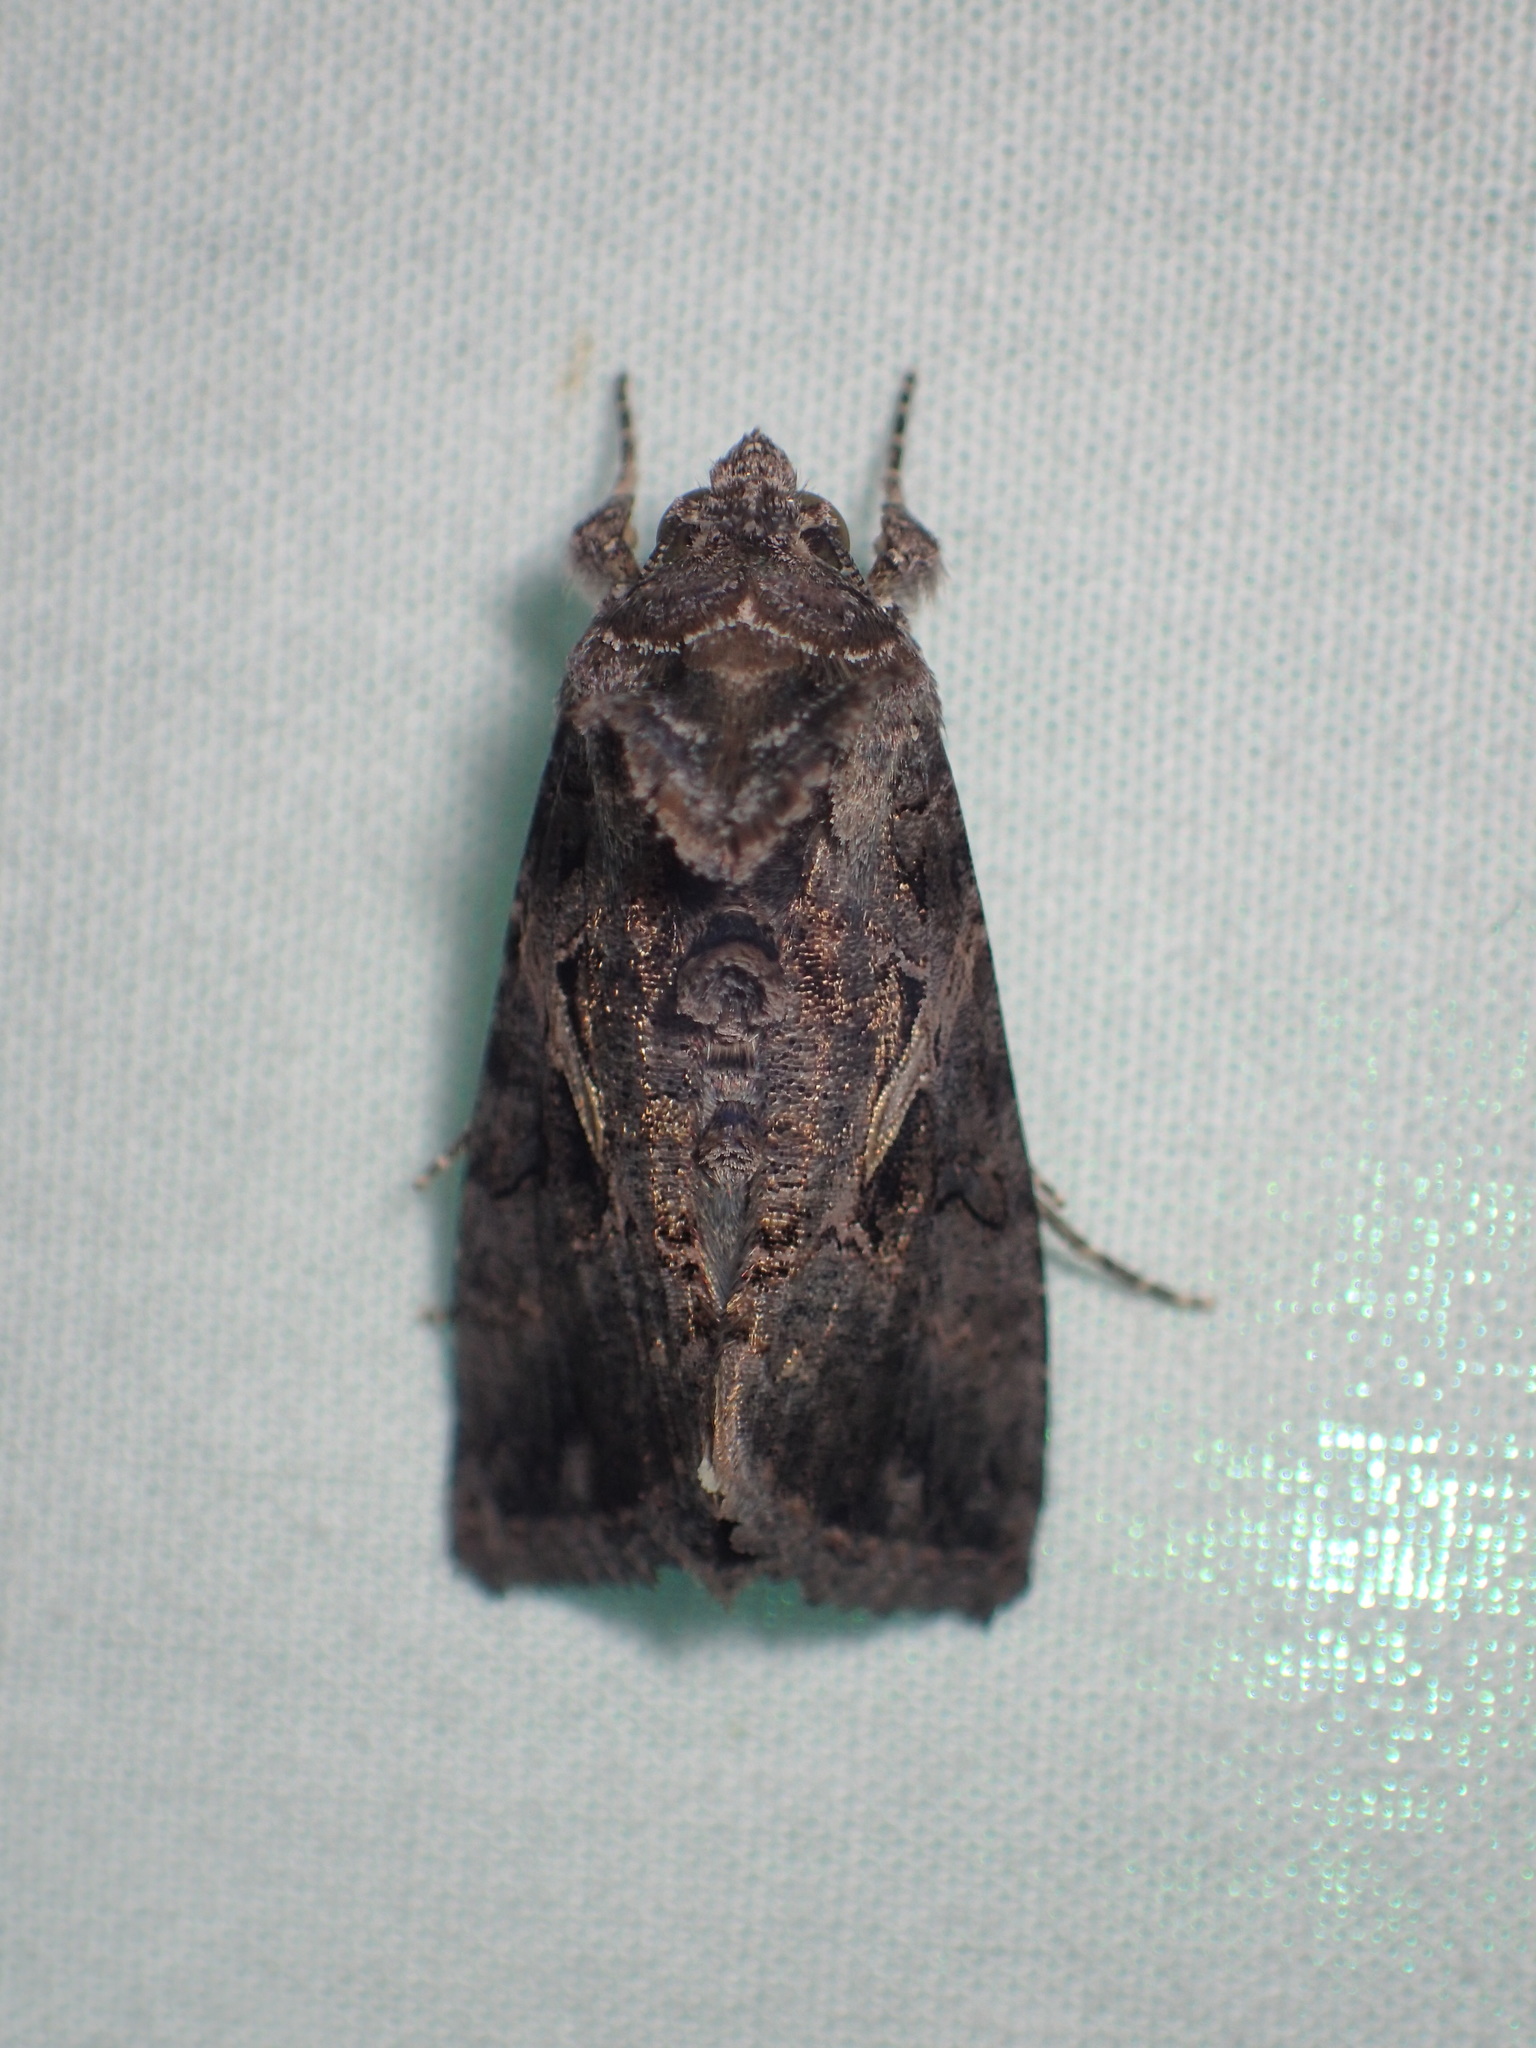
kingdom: Animalia
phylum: Arthropoda
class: Insecta
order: Lepidoptera
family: Noctuidae
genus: Chrysodeixis
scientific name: Chrysodeixis includens
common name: Cutworm moth
